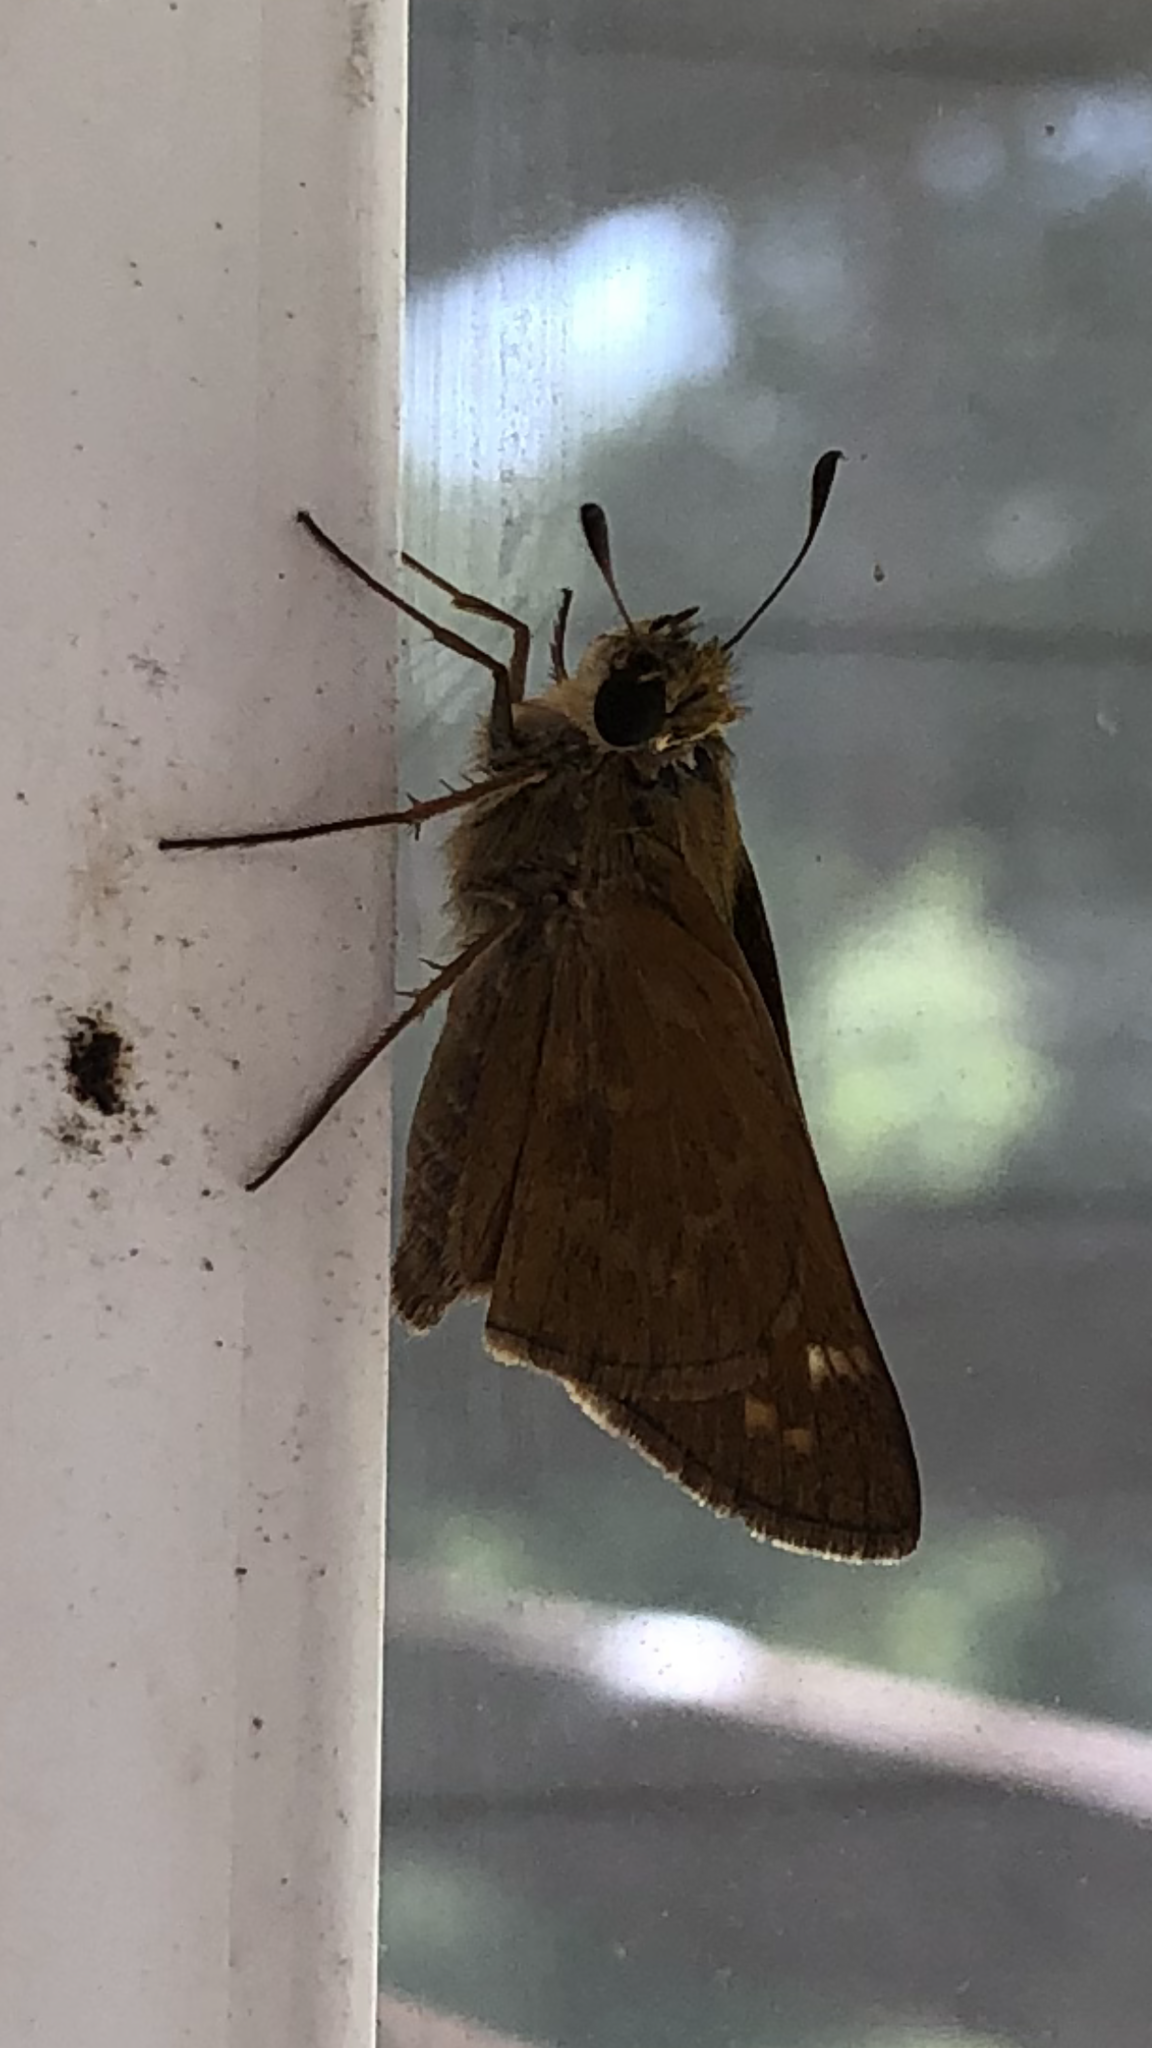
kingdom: Animalia
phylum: Arthropoda
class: Insecta
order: Lepidoptera
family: Hesperiidae
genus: Atalopedes
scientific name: Atalopedes
